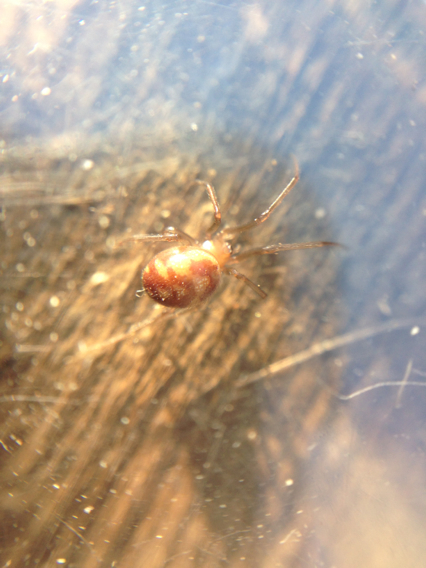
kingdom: Animalia
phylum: Arthropoda
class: Arachnida
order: Araneae
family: Theridiidae
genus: Steatoda
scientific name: Steatoda grossa
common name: False black widow
